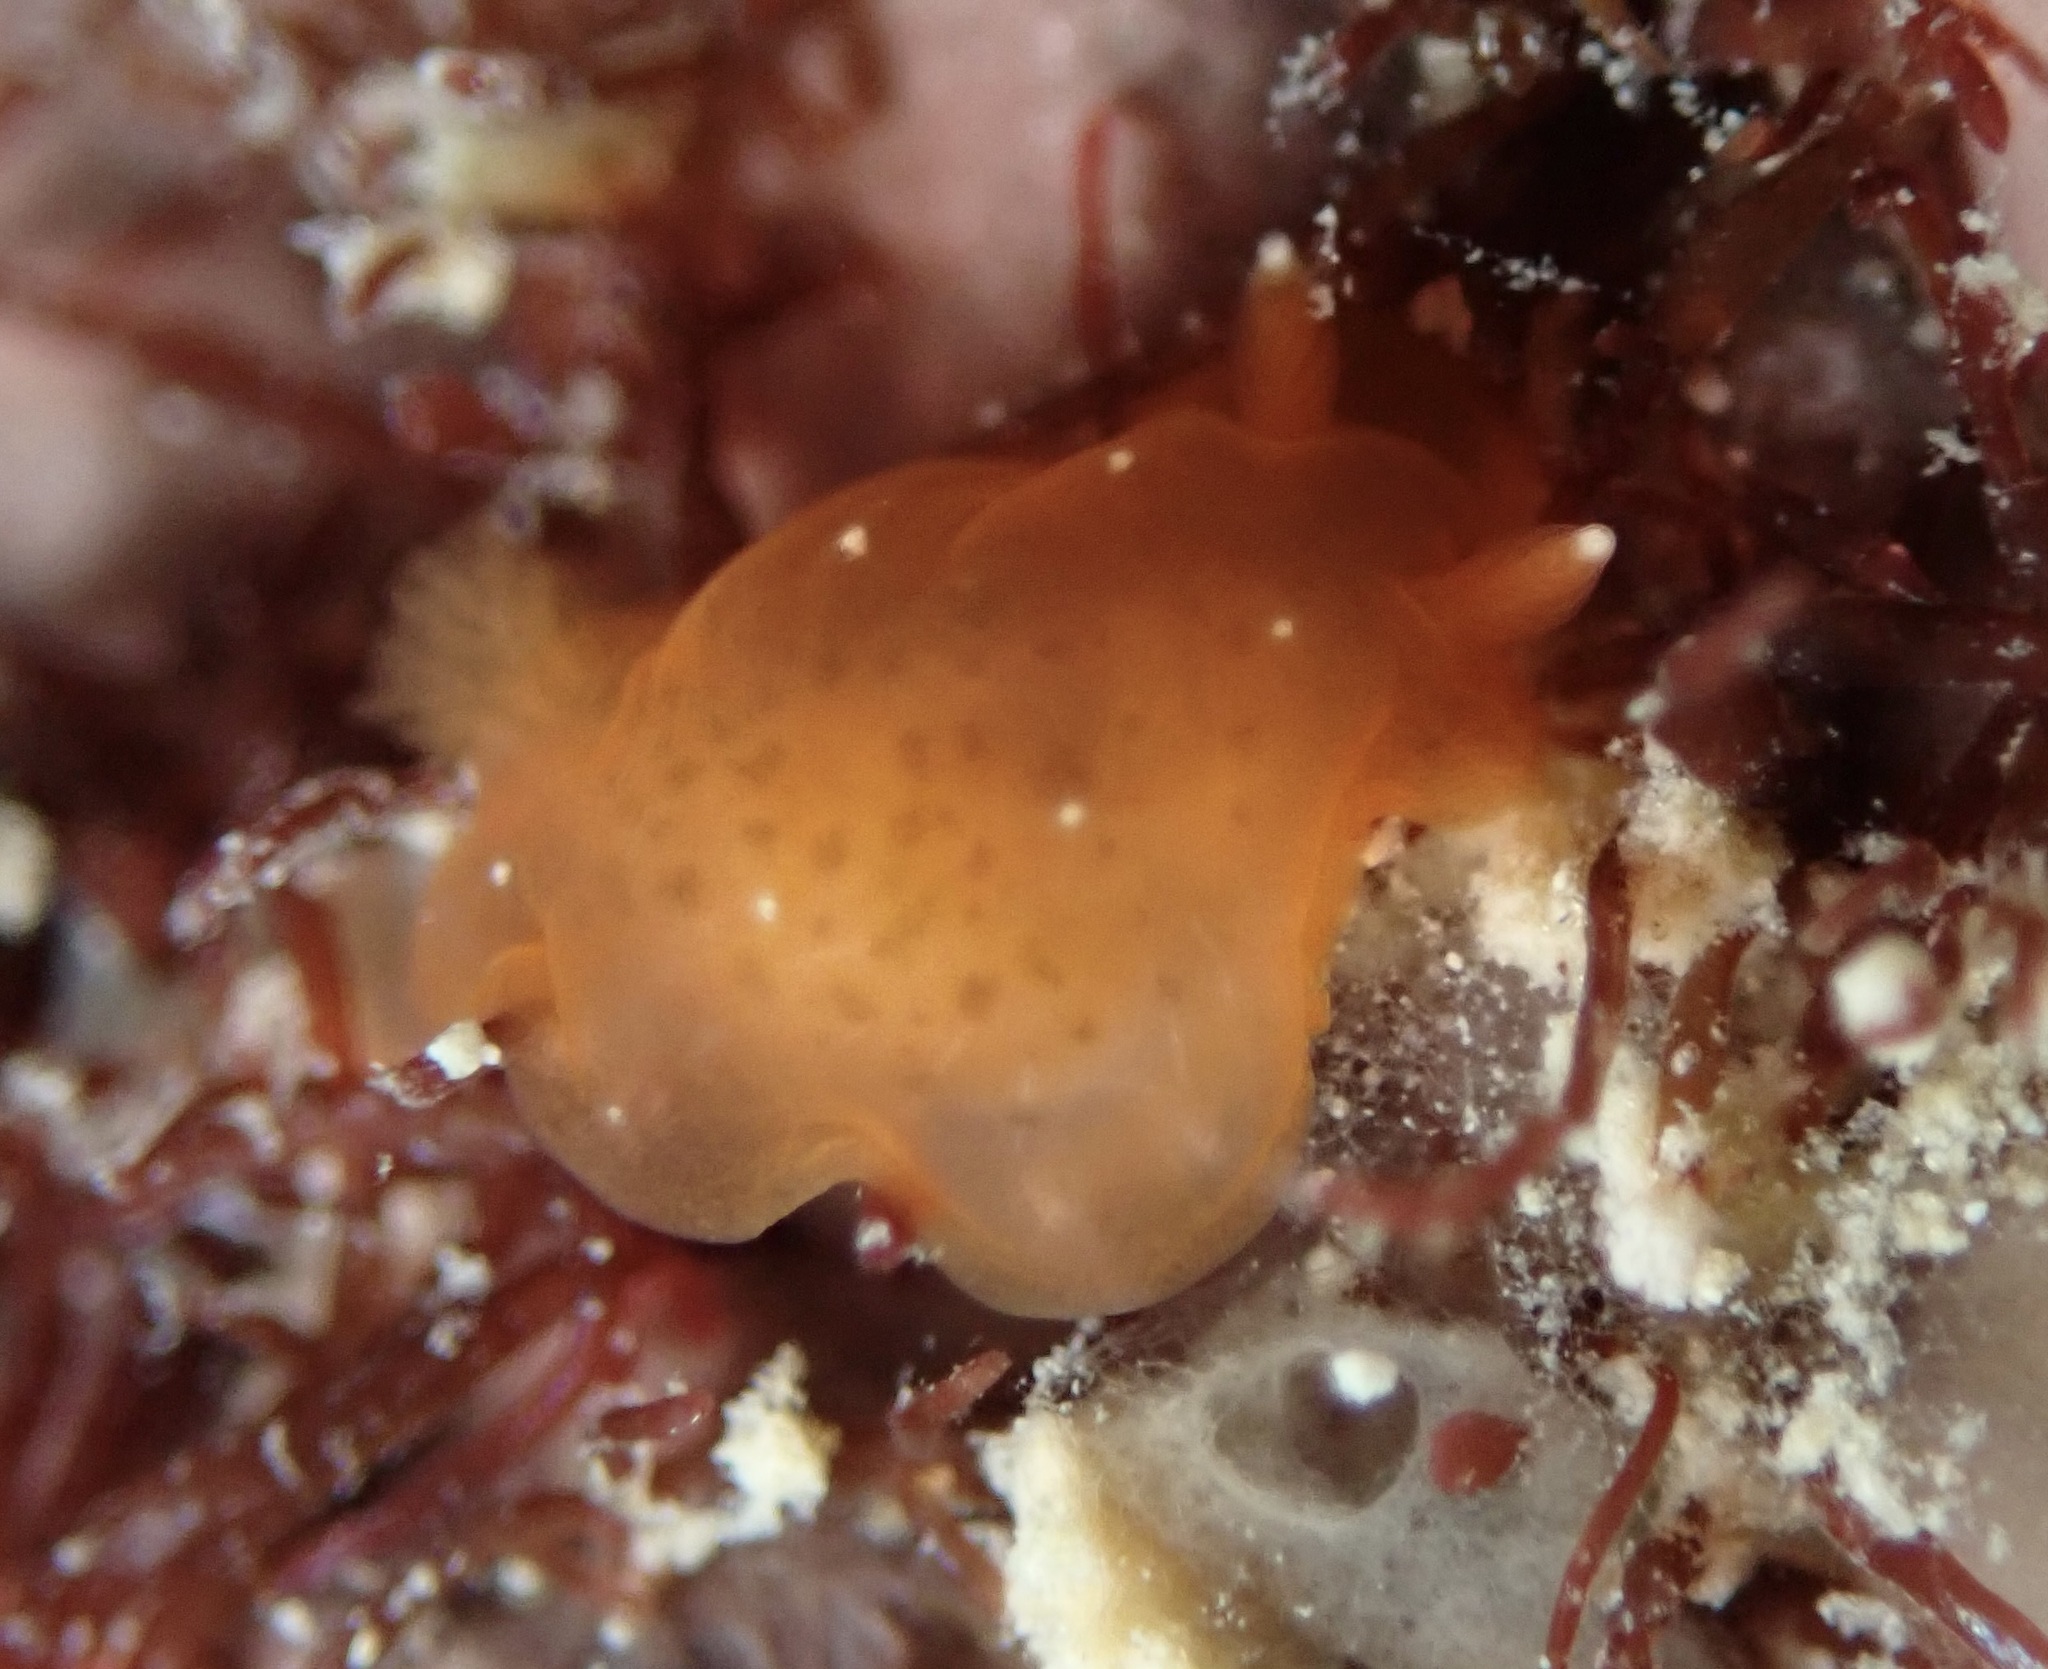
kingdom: Animalia
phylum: Mollusca
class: Gastropoda
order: Nudibranchia
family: Dendrodorididae
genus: Dendrodoris
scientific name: Dendrodoris nigra
